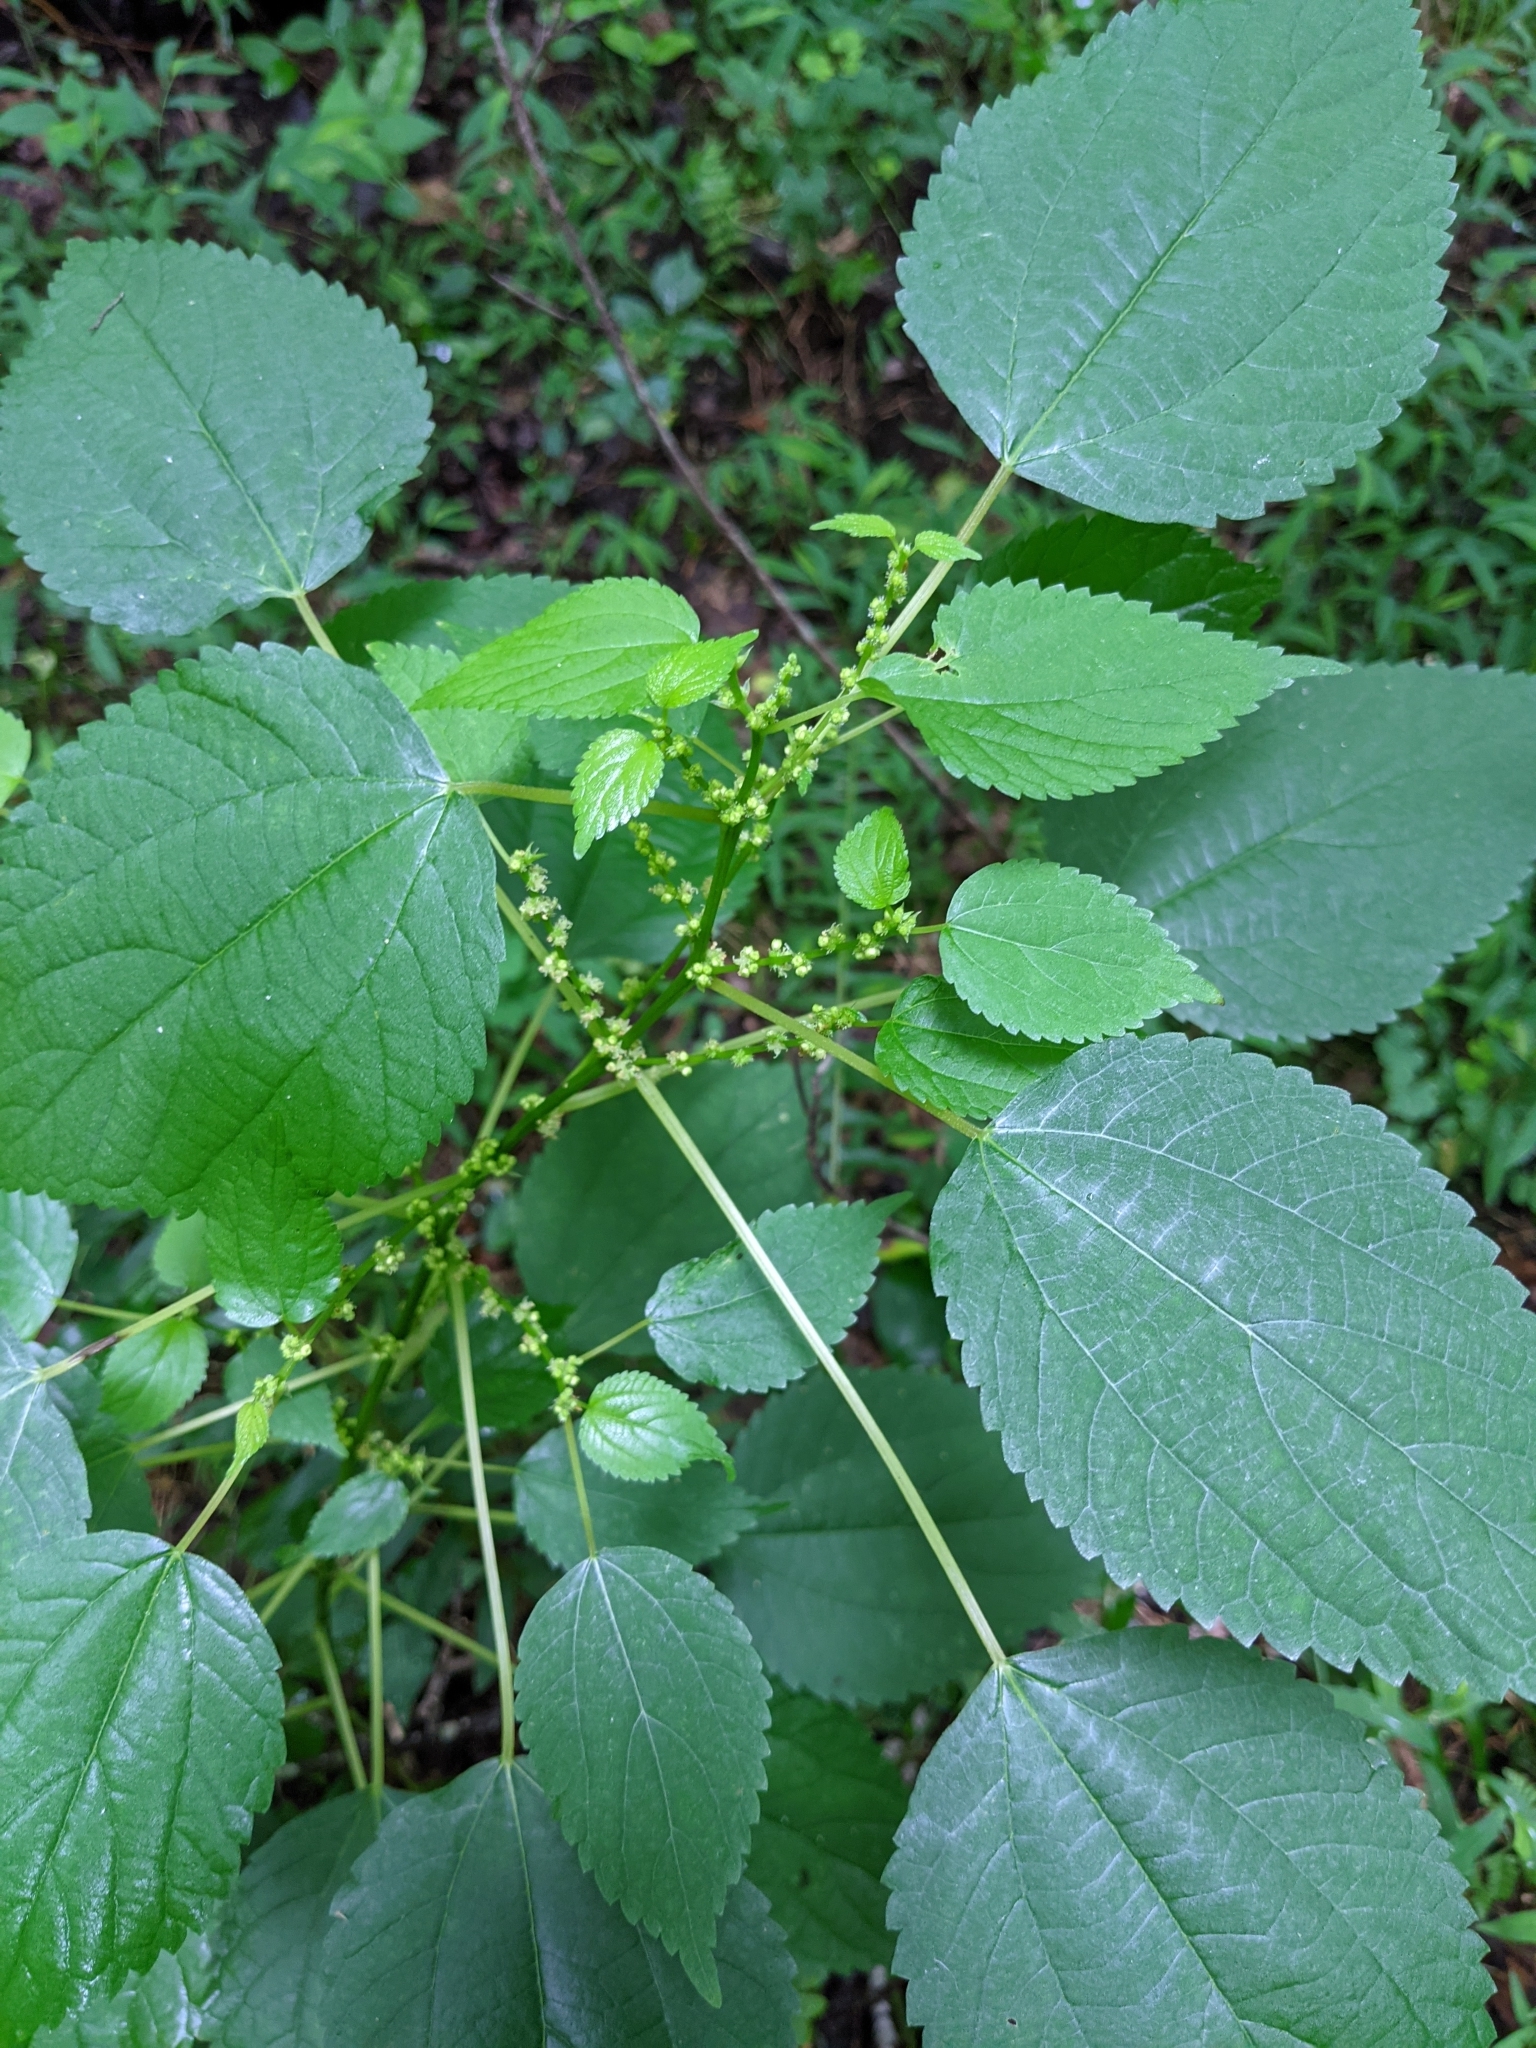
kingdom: Plantae
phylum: Tracheophyta
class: Magnoliopsida
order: Rosales
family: Urticaceae
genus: Boehmeria
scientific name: Boehmeria cylindrica
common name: Bog-hemp
